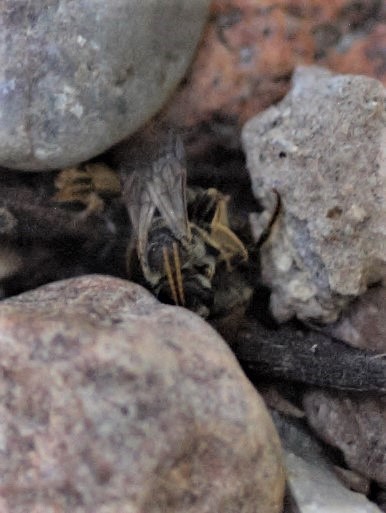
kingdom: Animalia
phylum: Arthropoda
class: Insecta
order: Hymenoptera
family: Halictidae
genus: Halictus
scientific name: Halictus ligatus
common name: Ligated furrow bee
